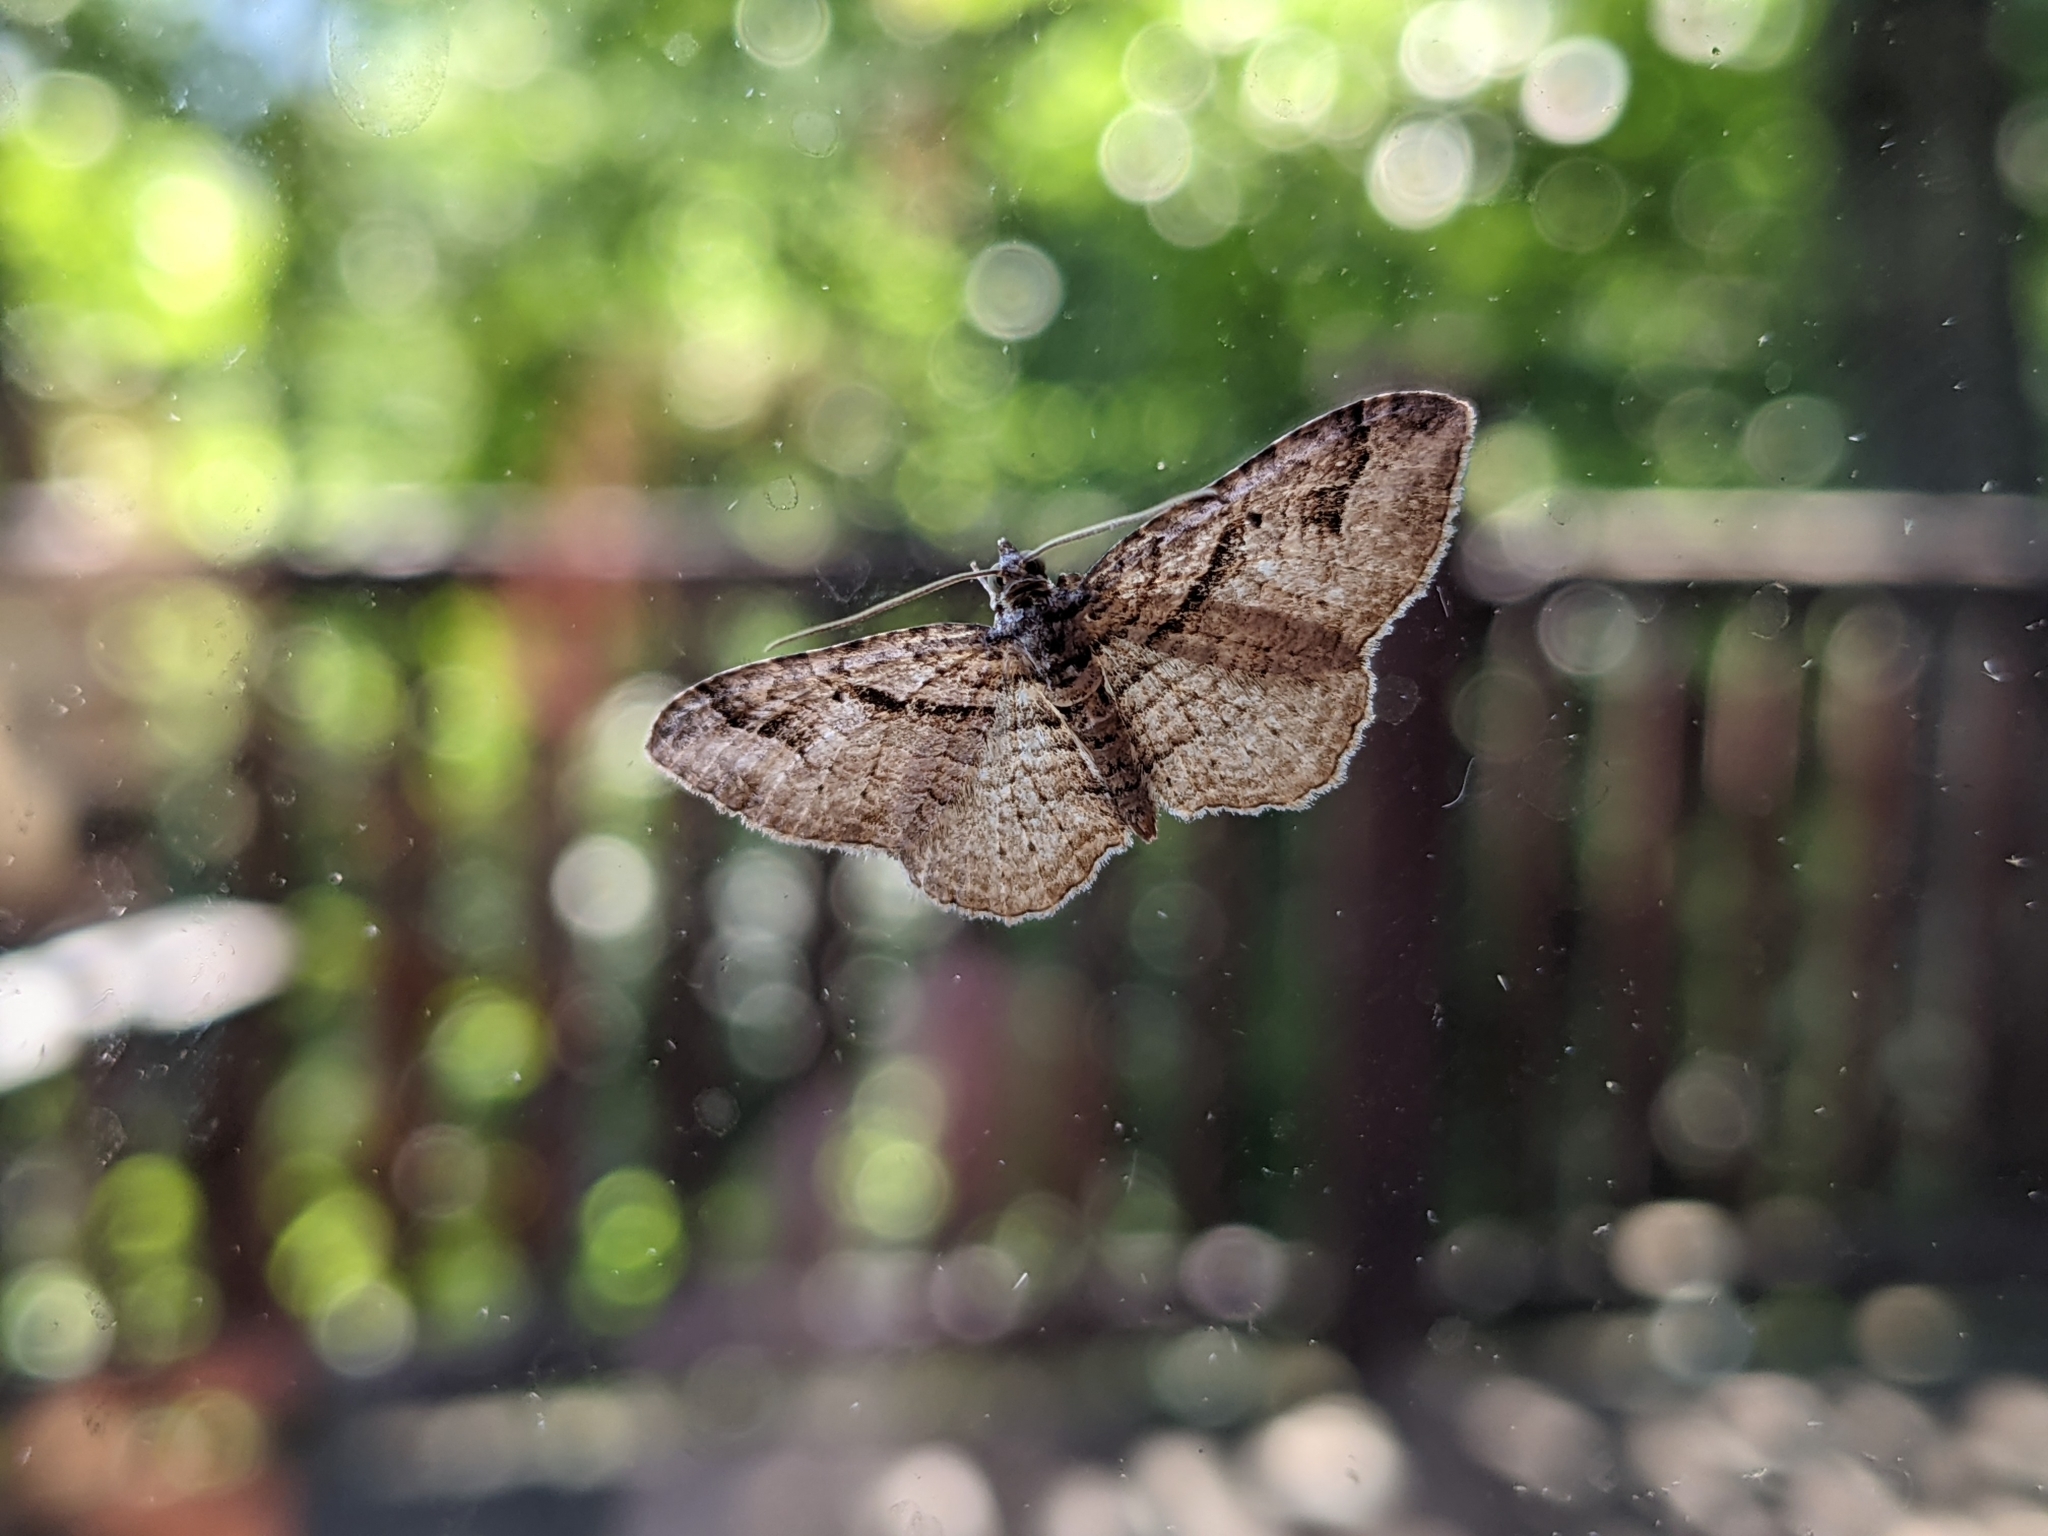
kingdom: Animalia
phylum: Arthropoda
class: Insecta
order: Lepidoptera
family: Geometridae
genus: Costaconvexa
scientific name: Costaconvexa centrostrigaria
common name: Bent-line carpet
